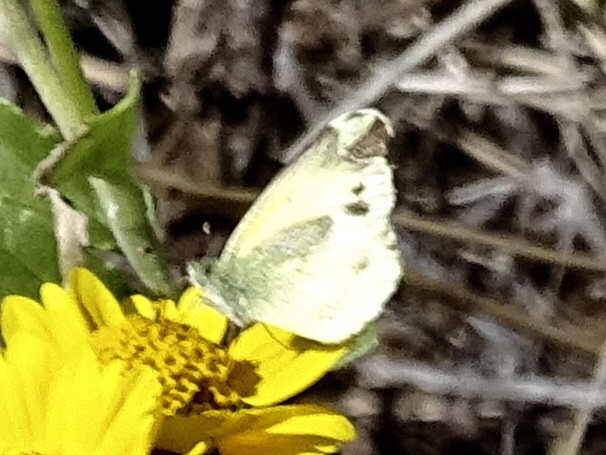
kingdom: Animalia
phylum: Arthropoda
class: Insecta
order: Lepidoptera
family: Pieridae
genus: Nathalis
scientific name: Nathalis iole
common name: Dainty sulphur
